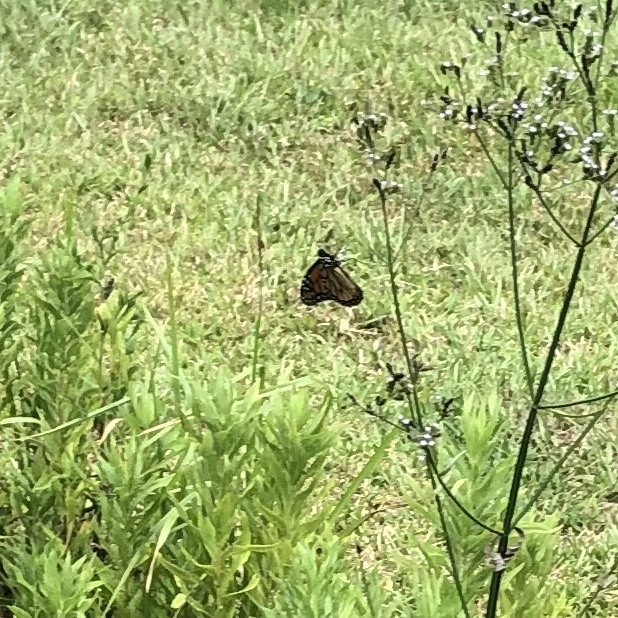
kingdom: Animalia
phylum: Arthropoda
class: Insecta
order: Lepidoptera
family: Nymphalidae
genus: Danaus
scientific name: Danaus plexippus
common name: Monarch
